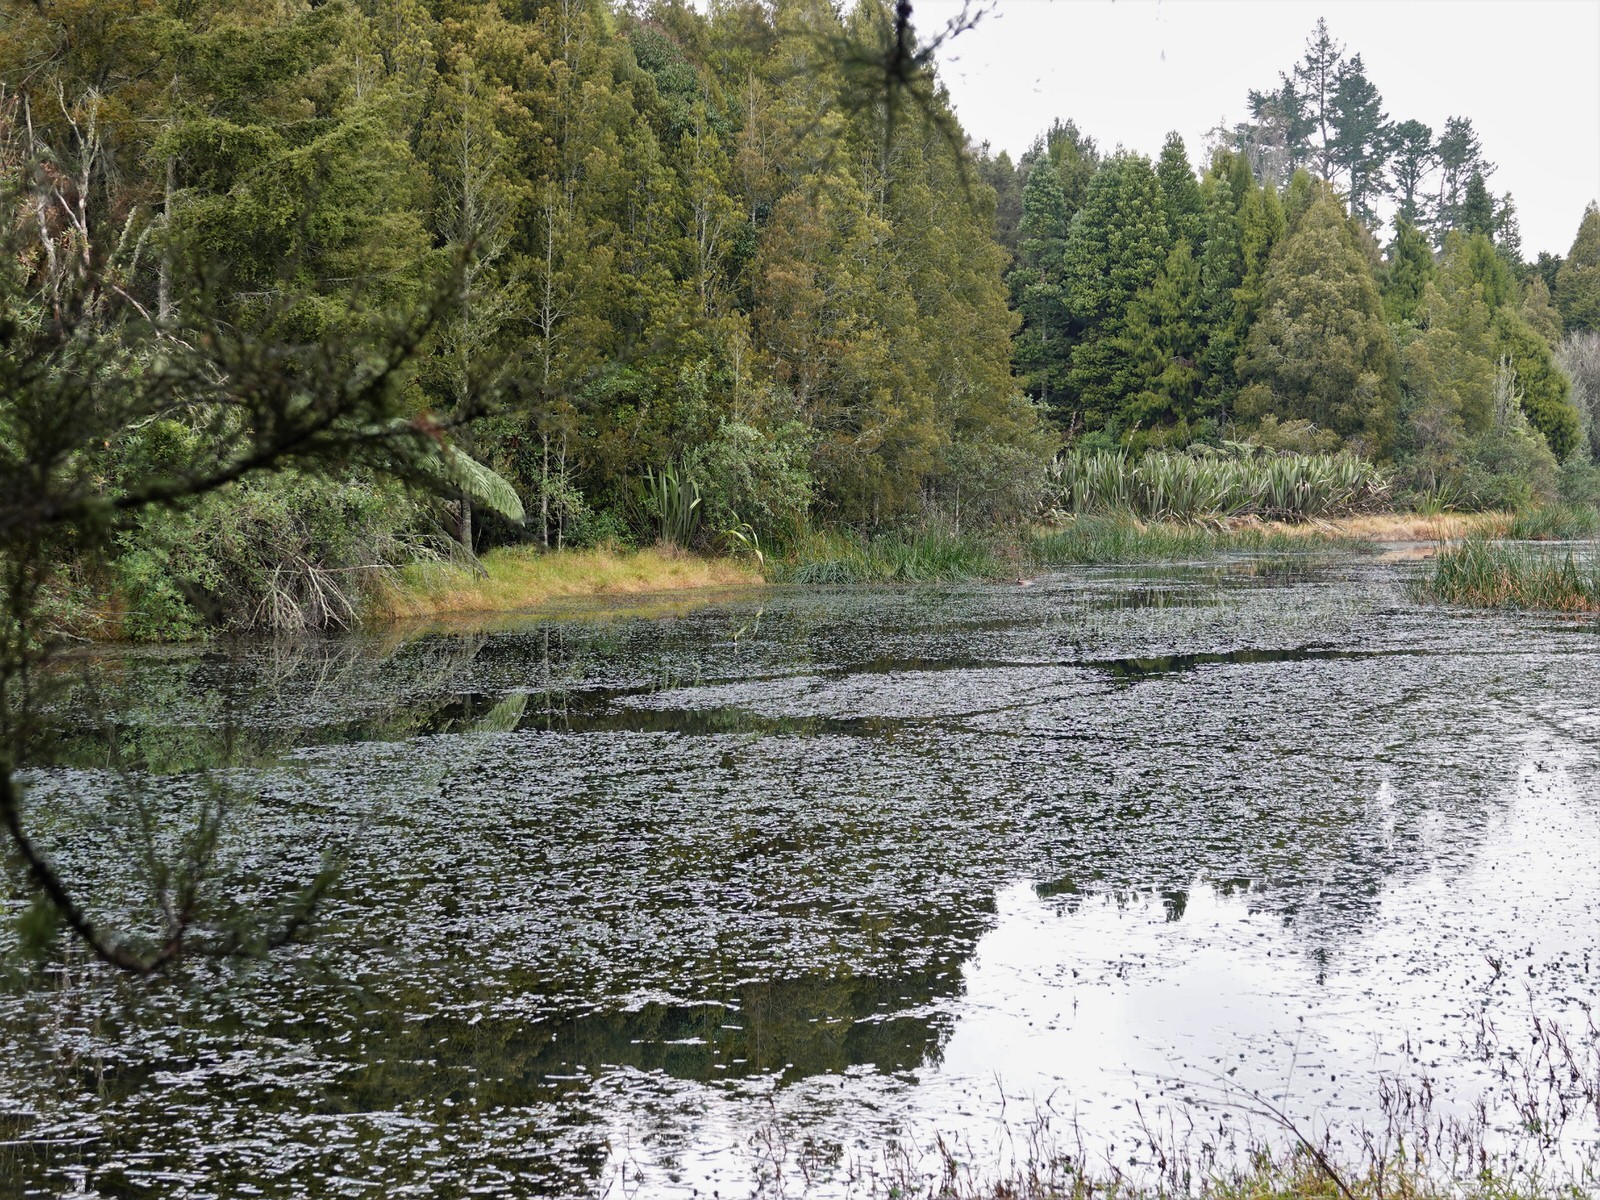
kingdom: Animalia
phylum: Chordata
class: Aves
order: Suliformes
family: Phalacrocoracidae
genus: Microcarbo
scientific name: Microcarbo melanoleucos
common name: Little pied cormorant
